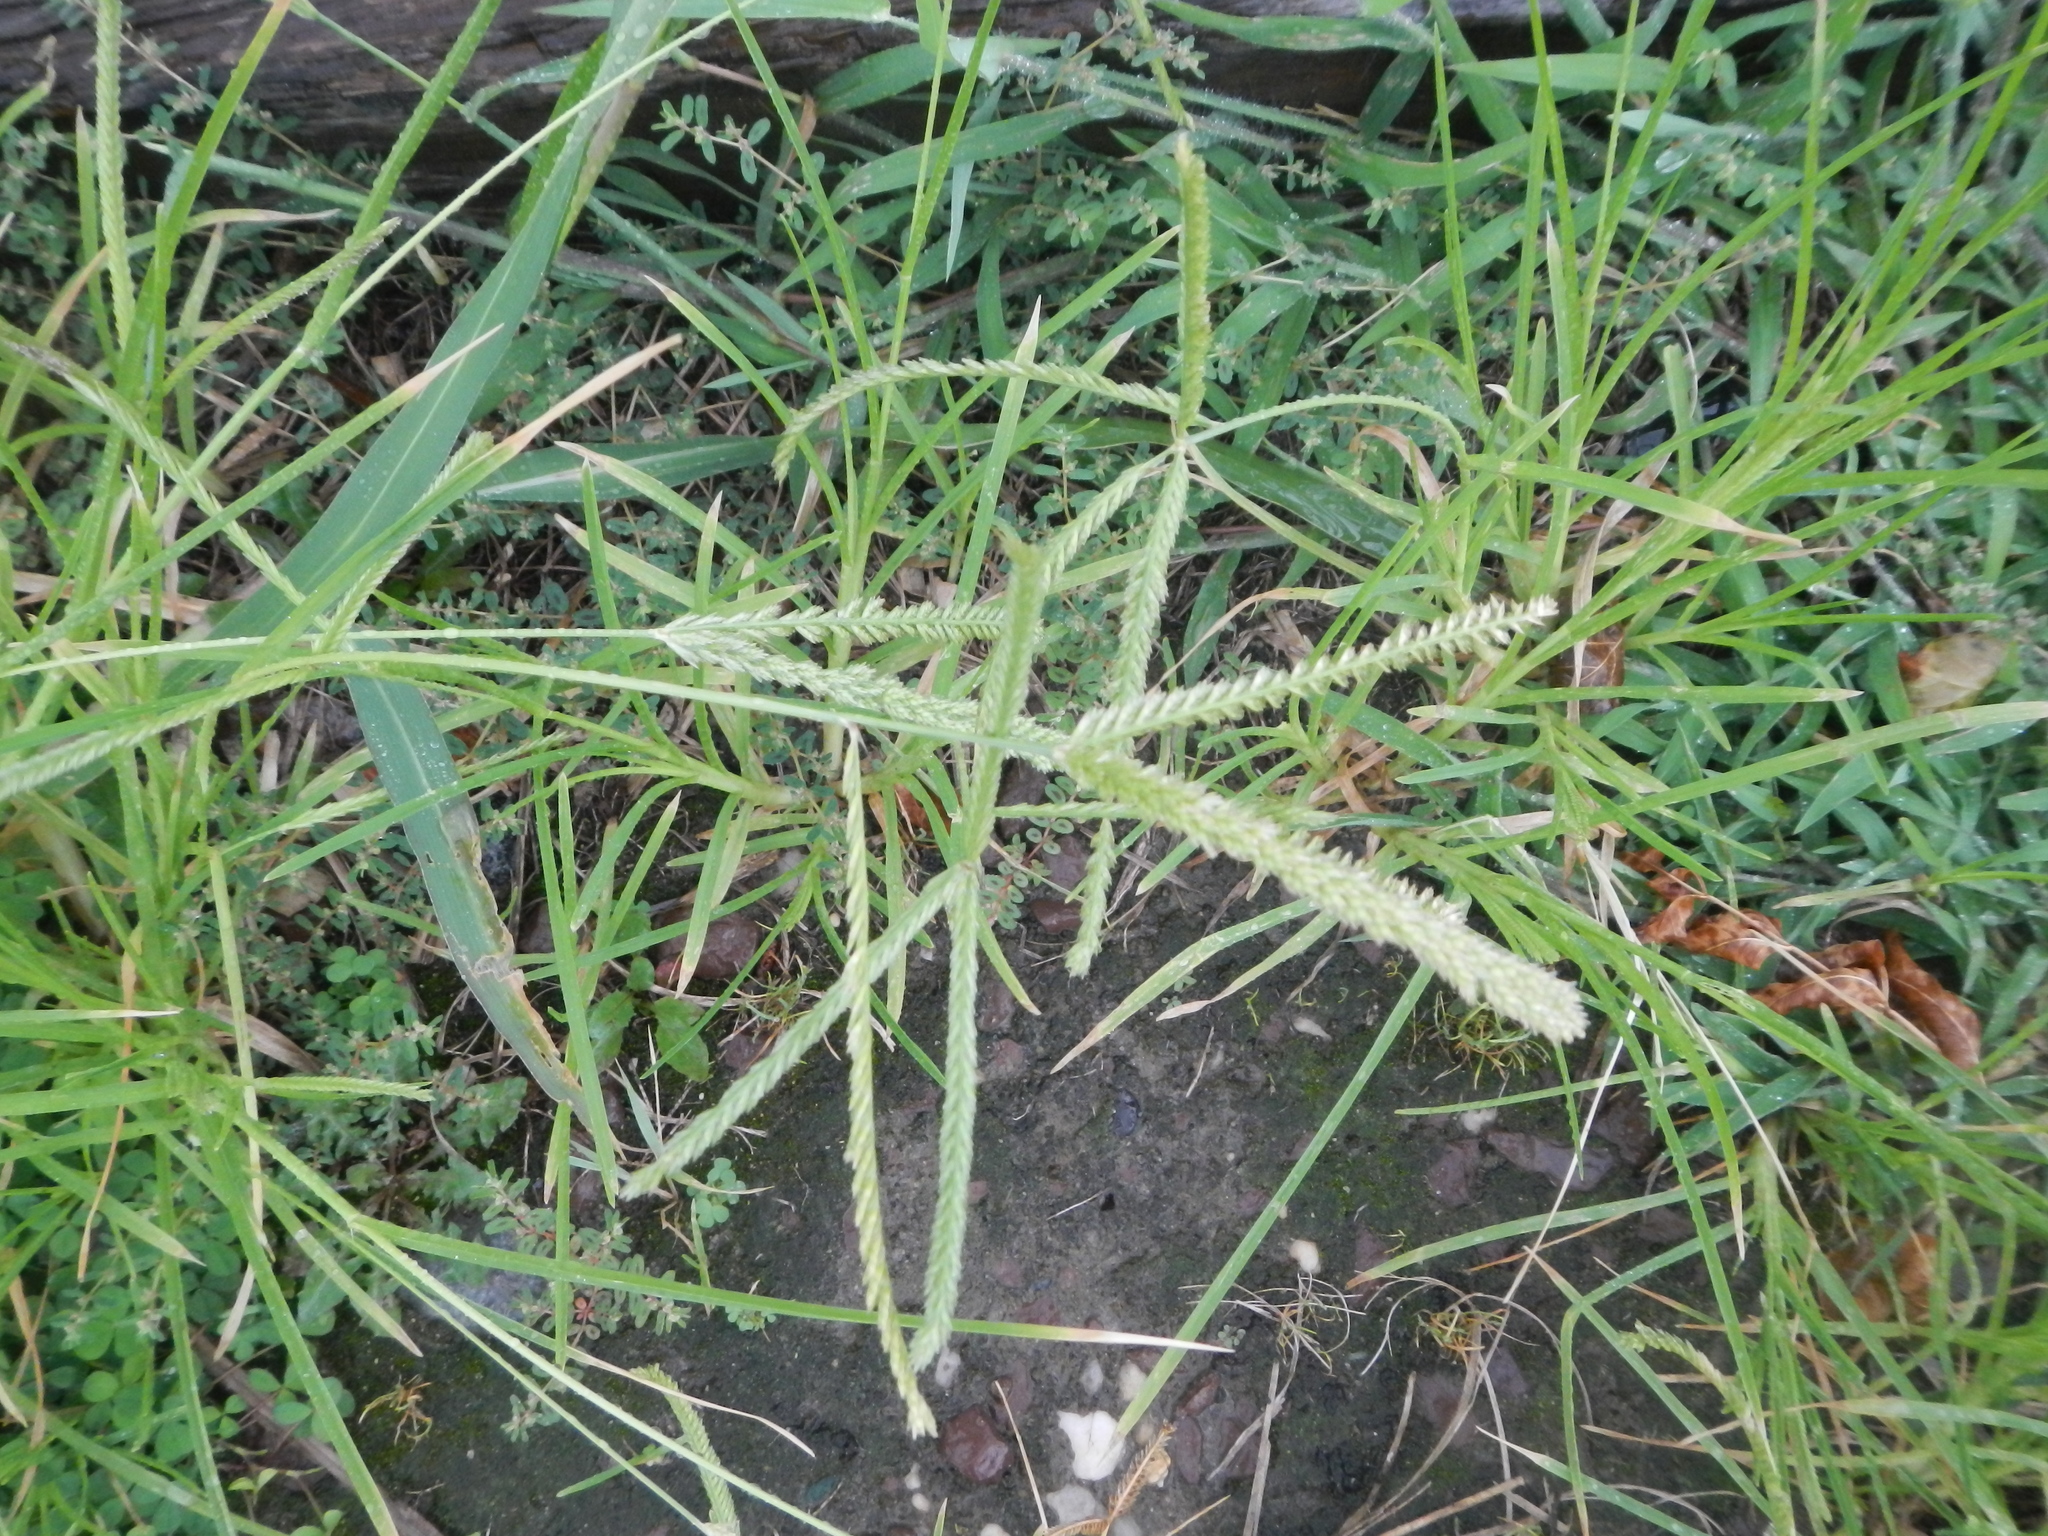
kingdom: Plantae
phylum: Tracheophyta
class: Liliopsida
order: Poales
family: Poaceae
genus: Eleusine
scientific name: Eleusine indica
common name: Yard-grass
